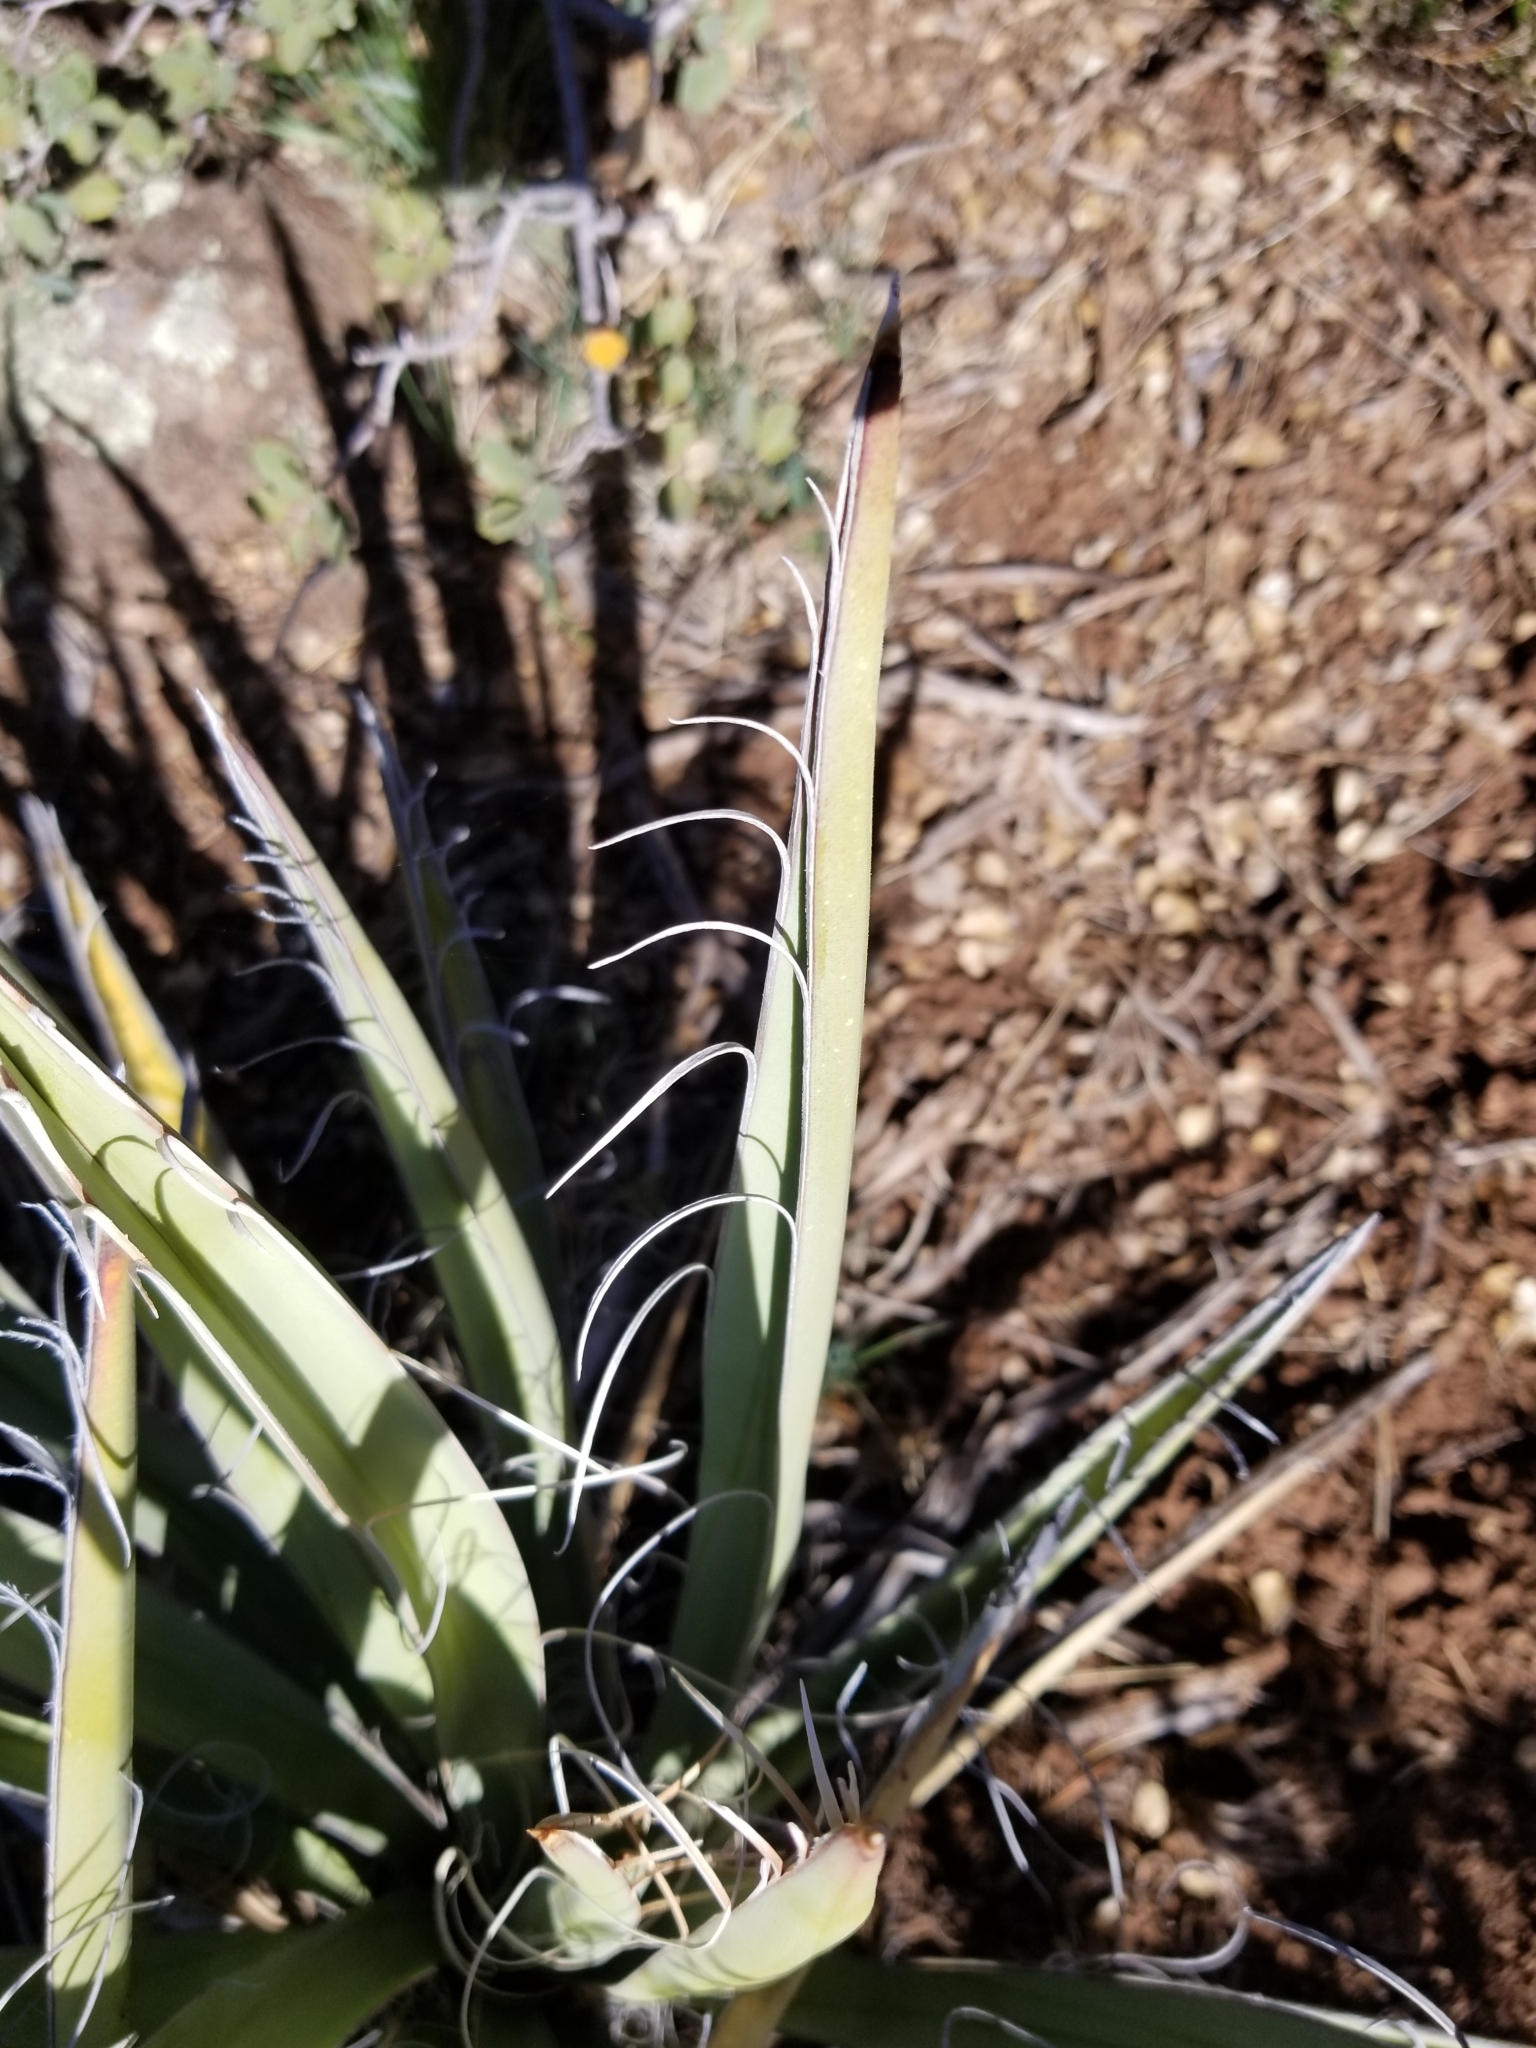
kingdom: Plantae
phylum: Tracheophyta
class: Liliopsida
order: Asparagales
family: Asparagaceae
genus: Yucca
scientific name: Yucca baccata
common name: Banana yucca
